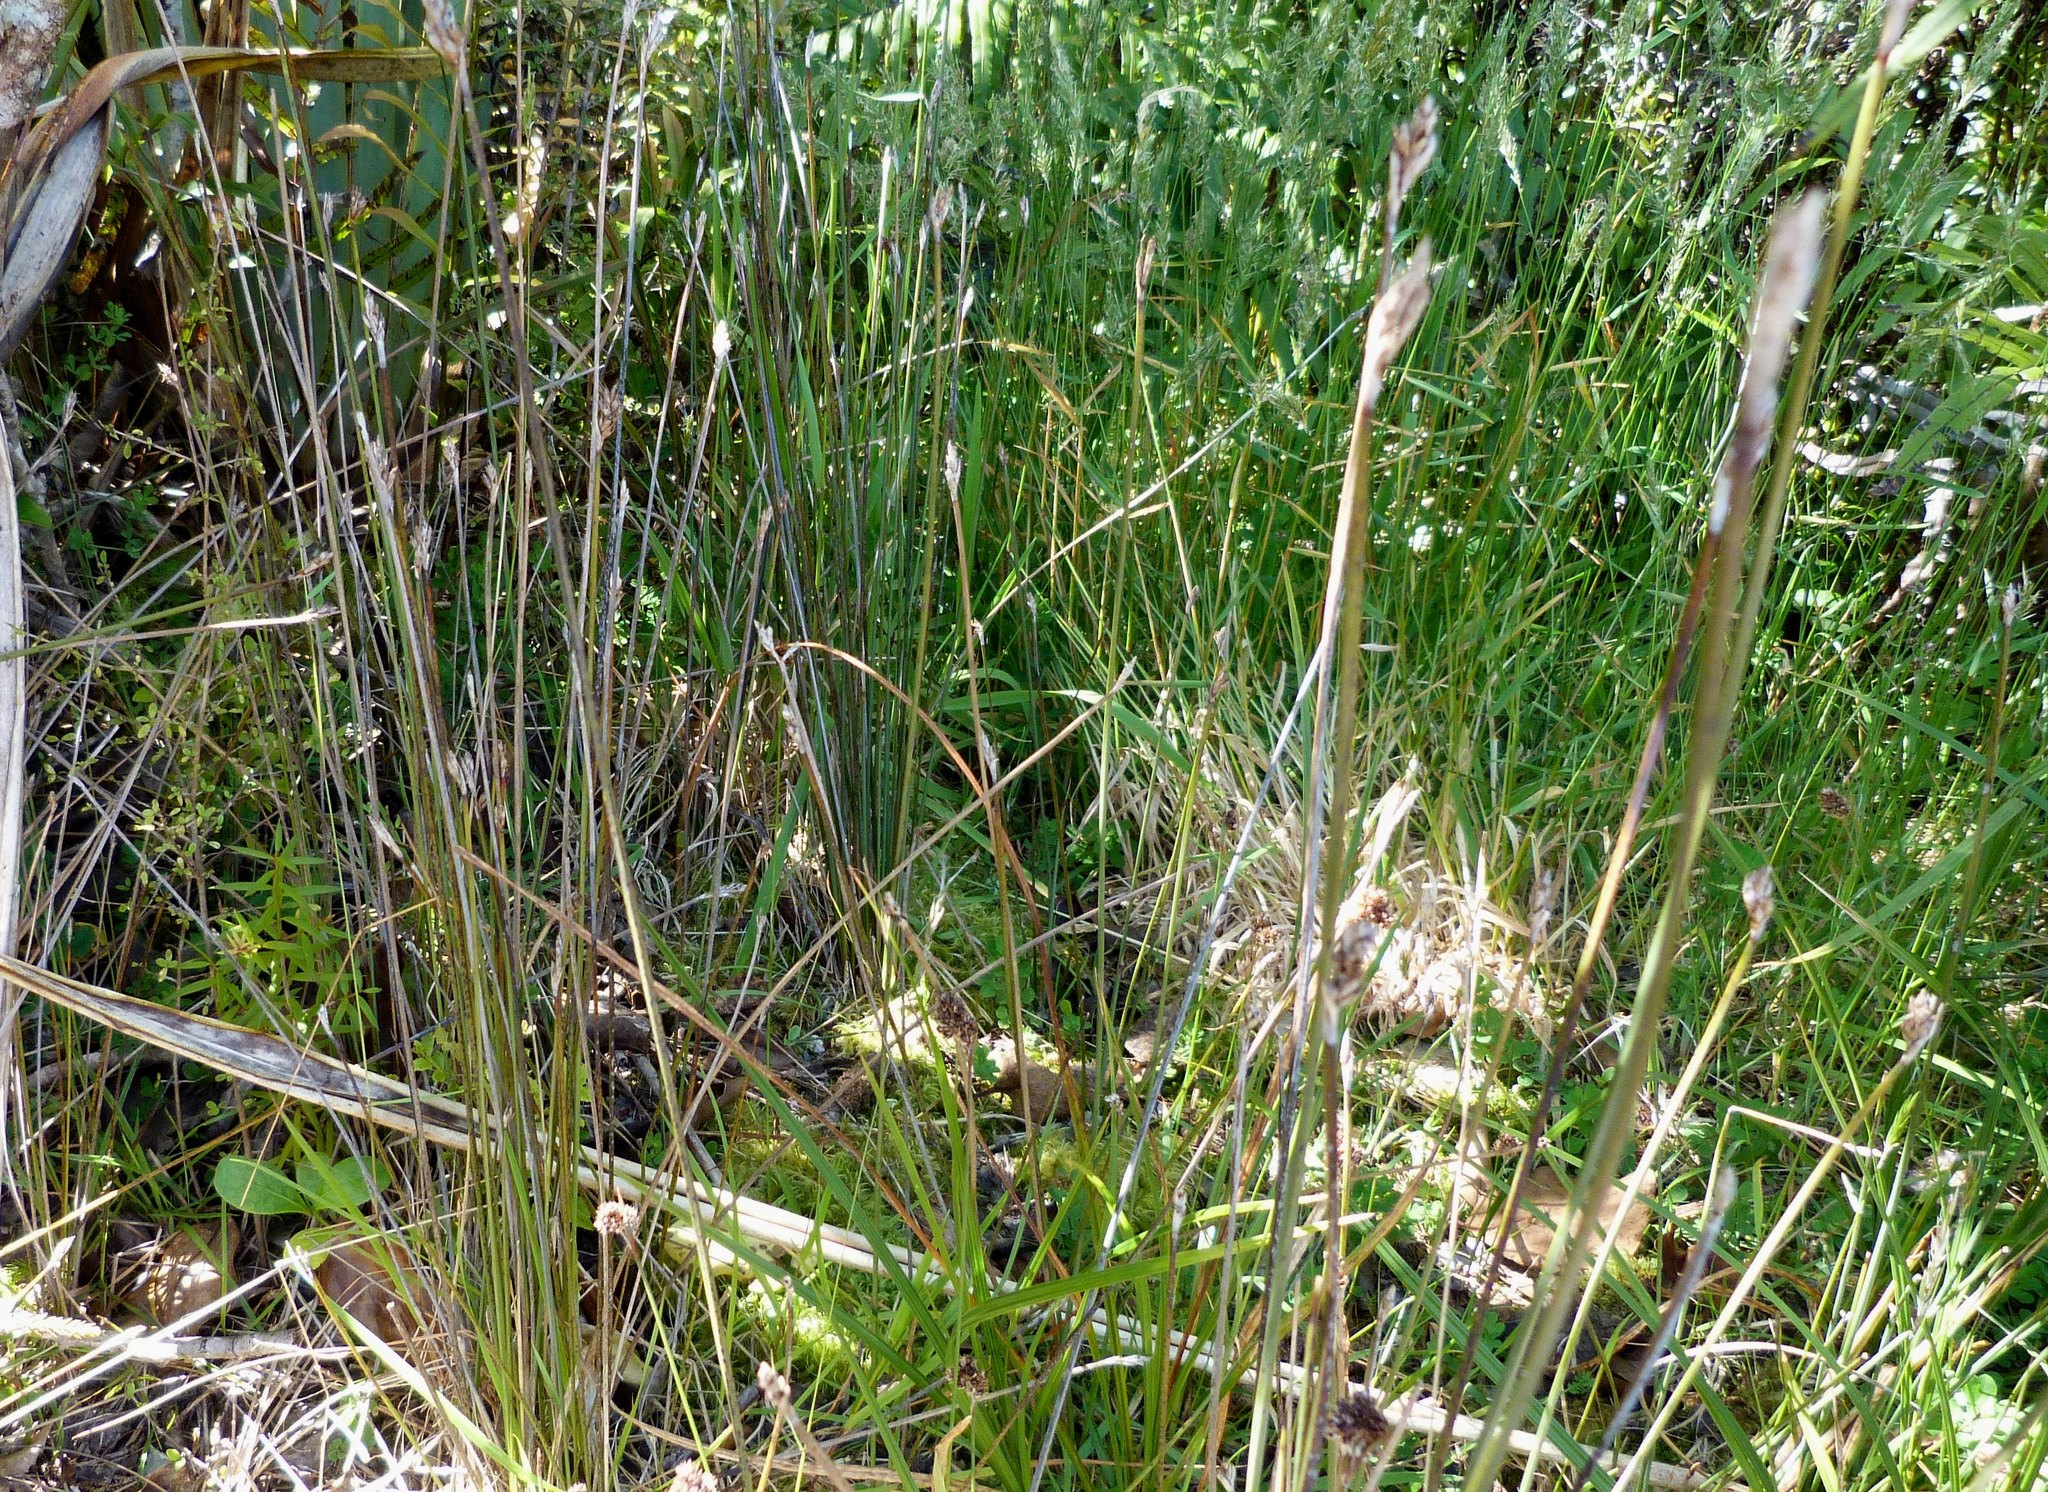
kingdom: Plantae
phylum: Tracheophyta
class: Liliopsida
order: Poales
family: Cyperaceae
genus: Lepidosperma
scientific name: Lepidosperma australe
